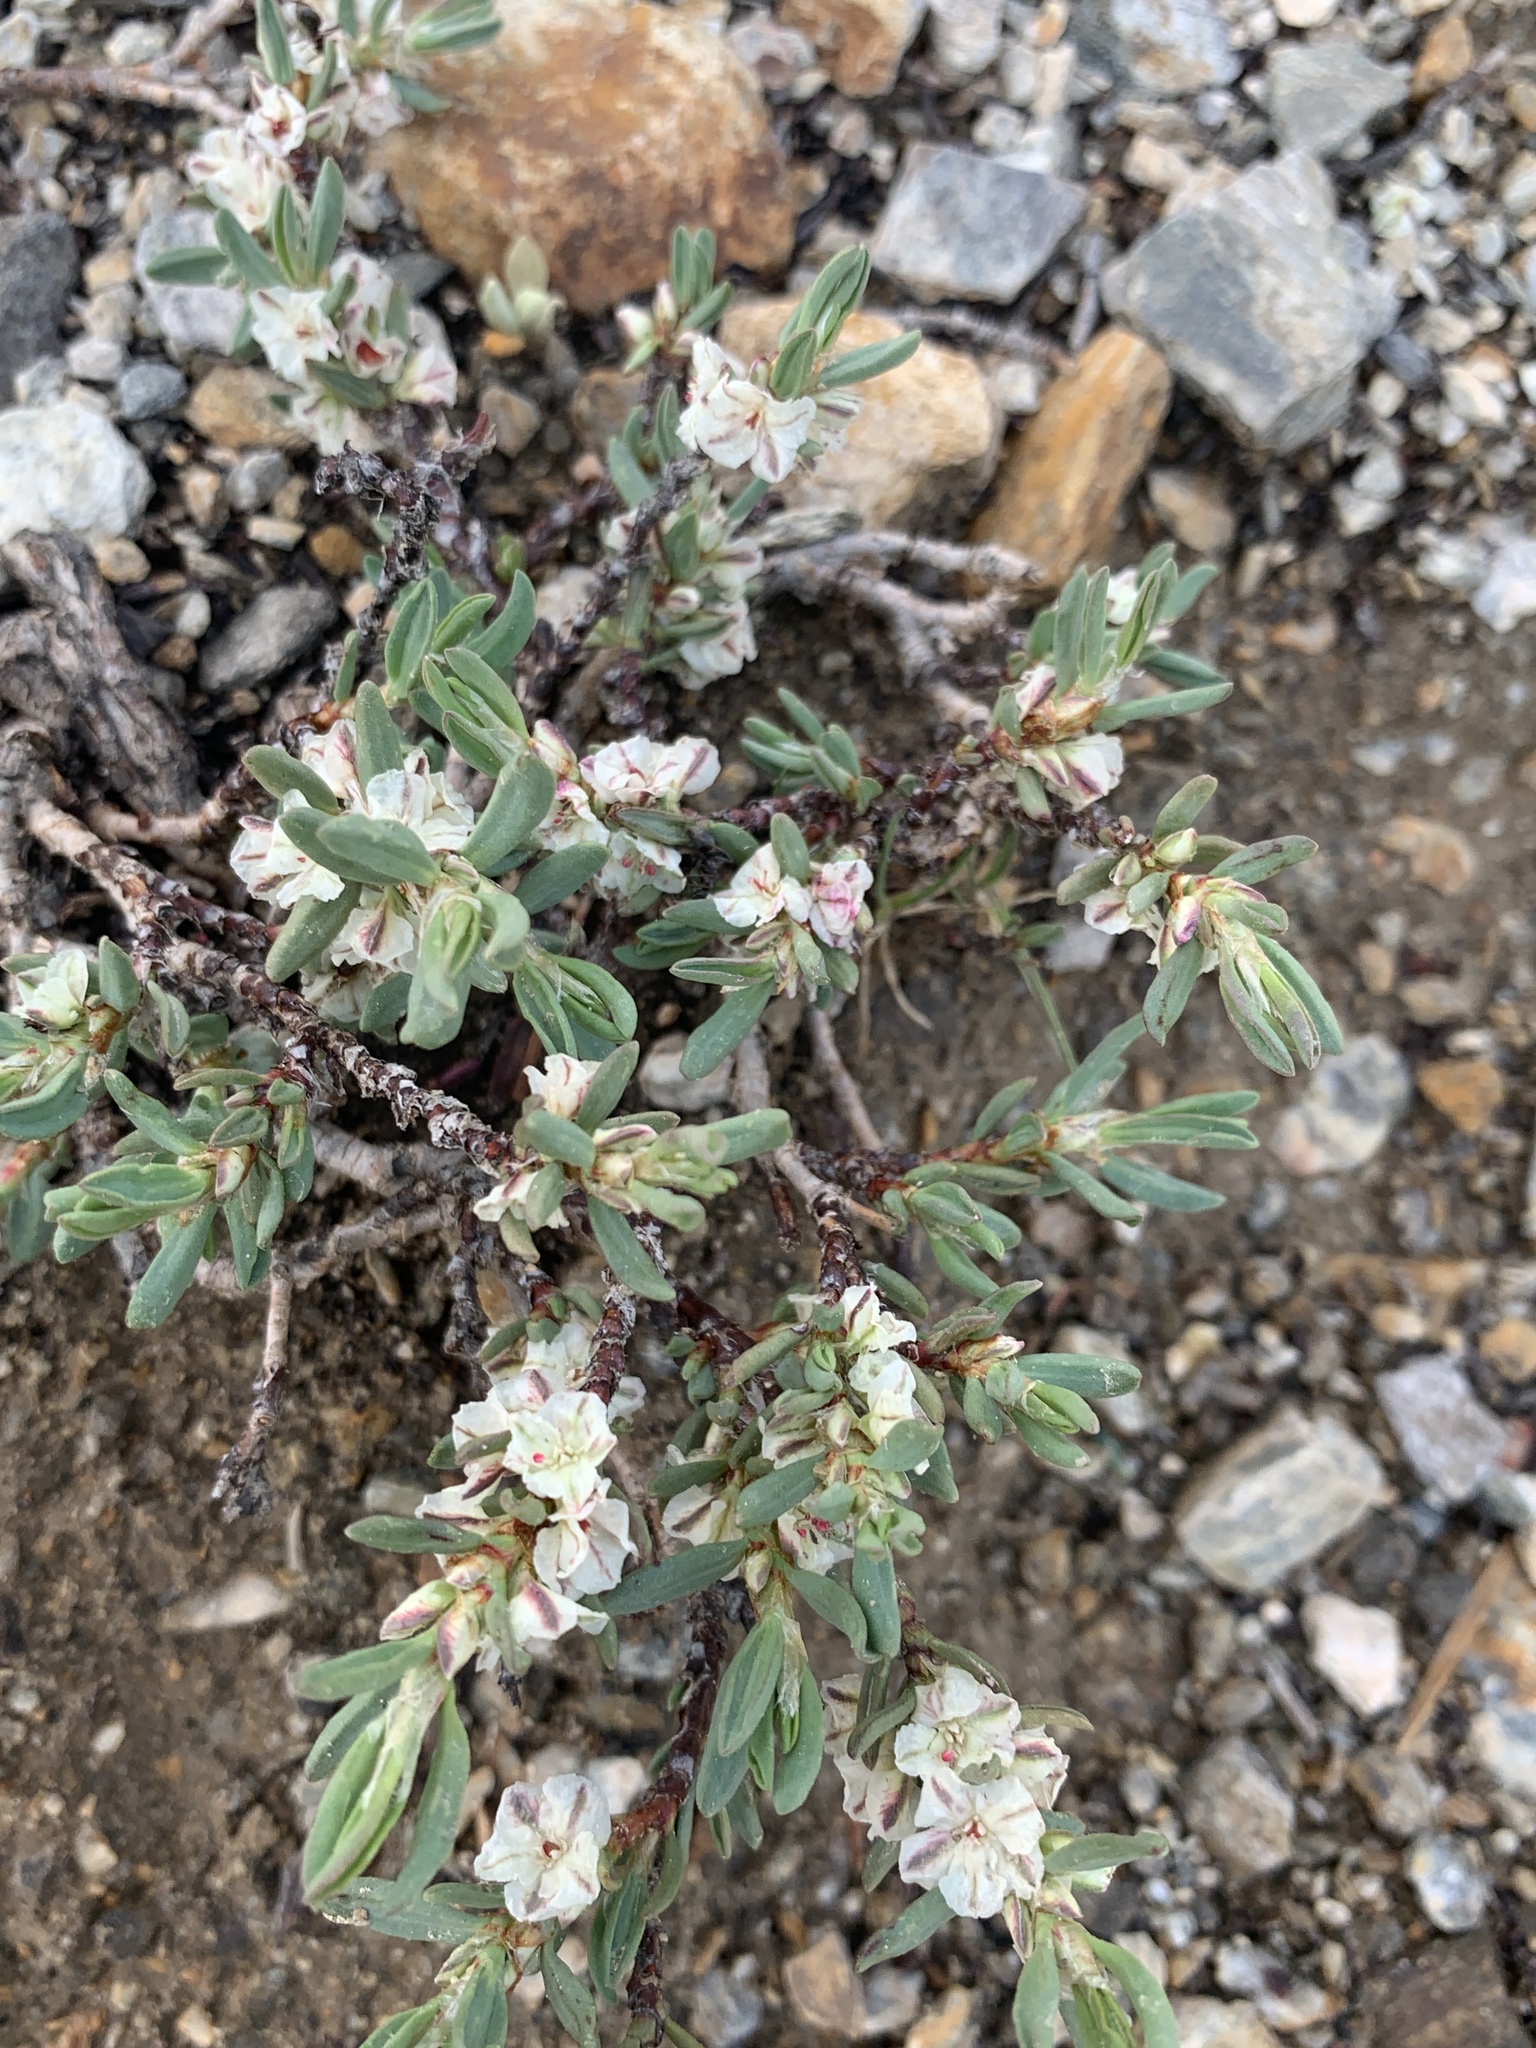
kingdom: Plantae
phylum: Tracheophyta
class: Magnoliopsida
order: Caryophyllales
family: Polygonaceae
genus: Polygonum
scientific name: Polygonum shastense
